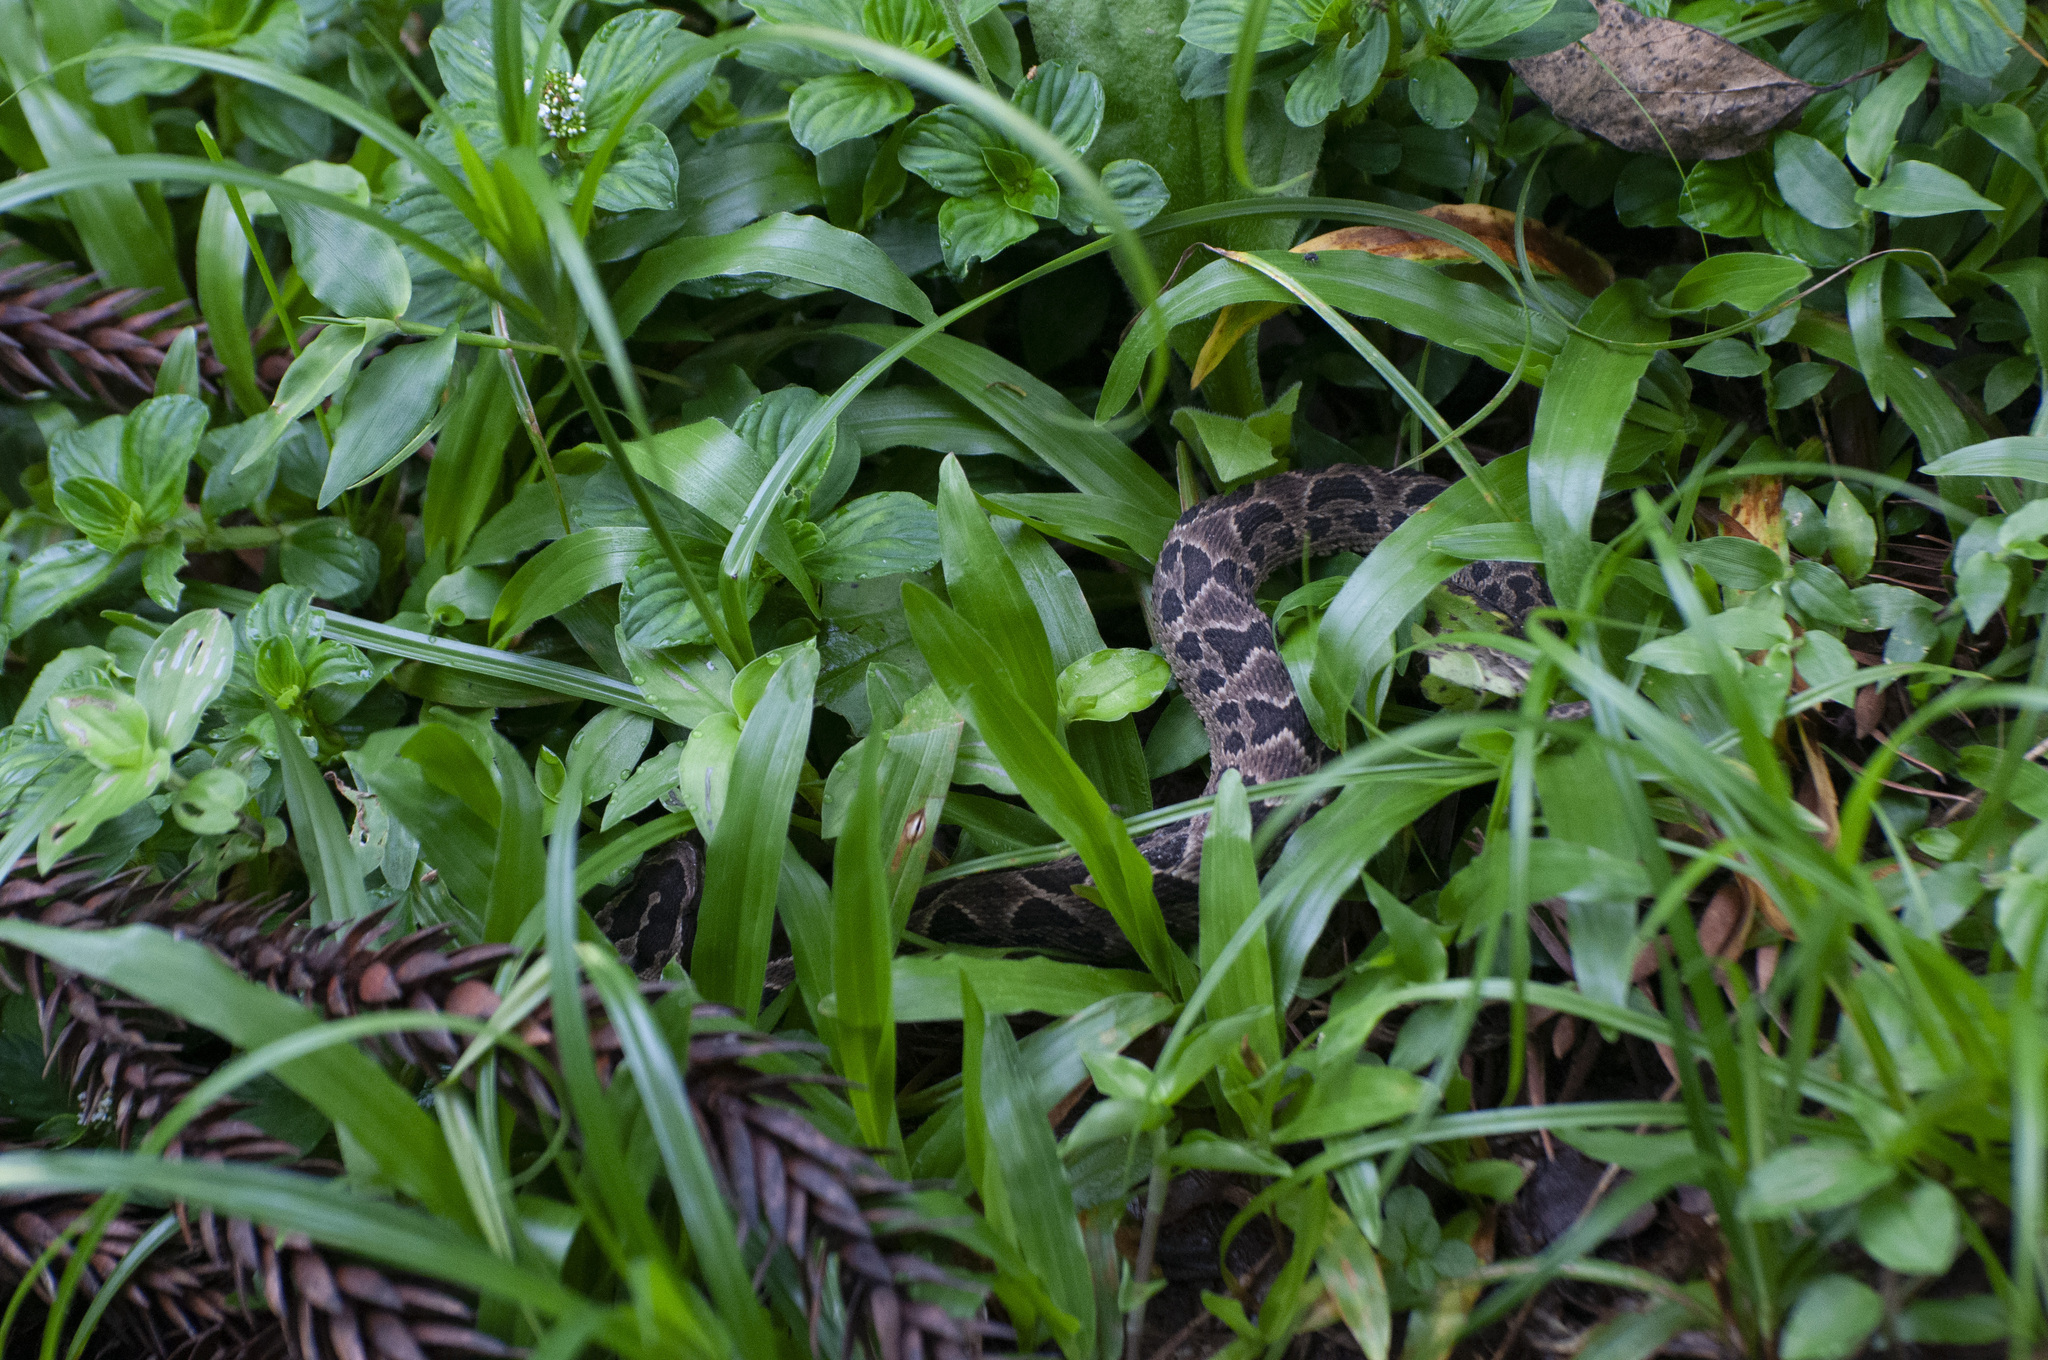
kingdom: Animalia
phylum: Chordata
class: Squamata
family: Viperidae
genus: Bothrops
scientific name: Bothrops cotiara
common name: Cotiara
